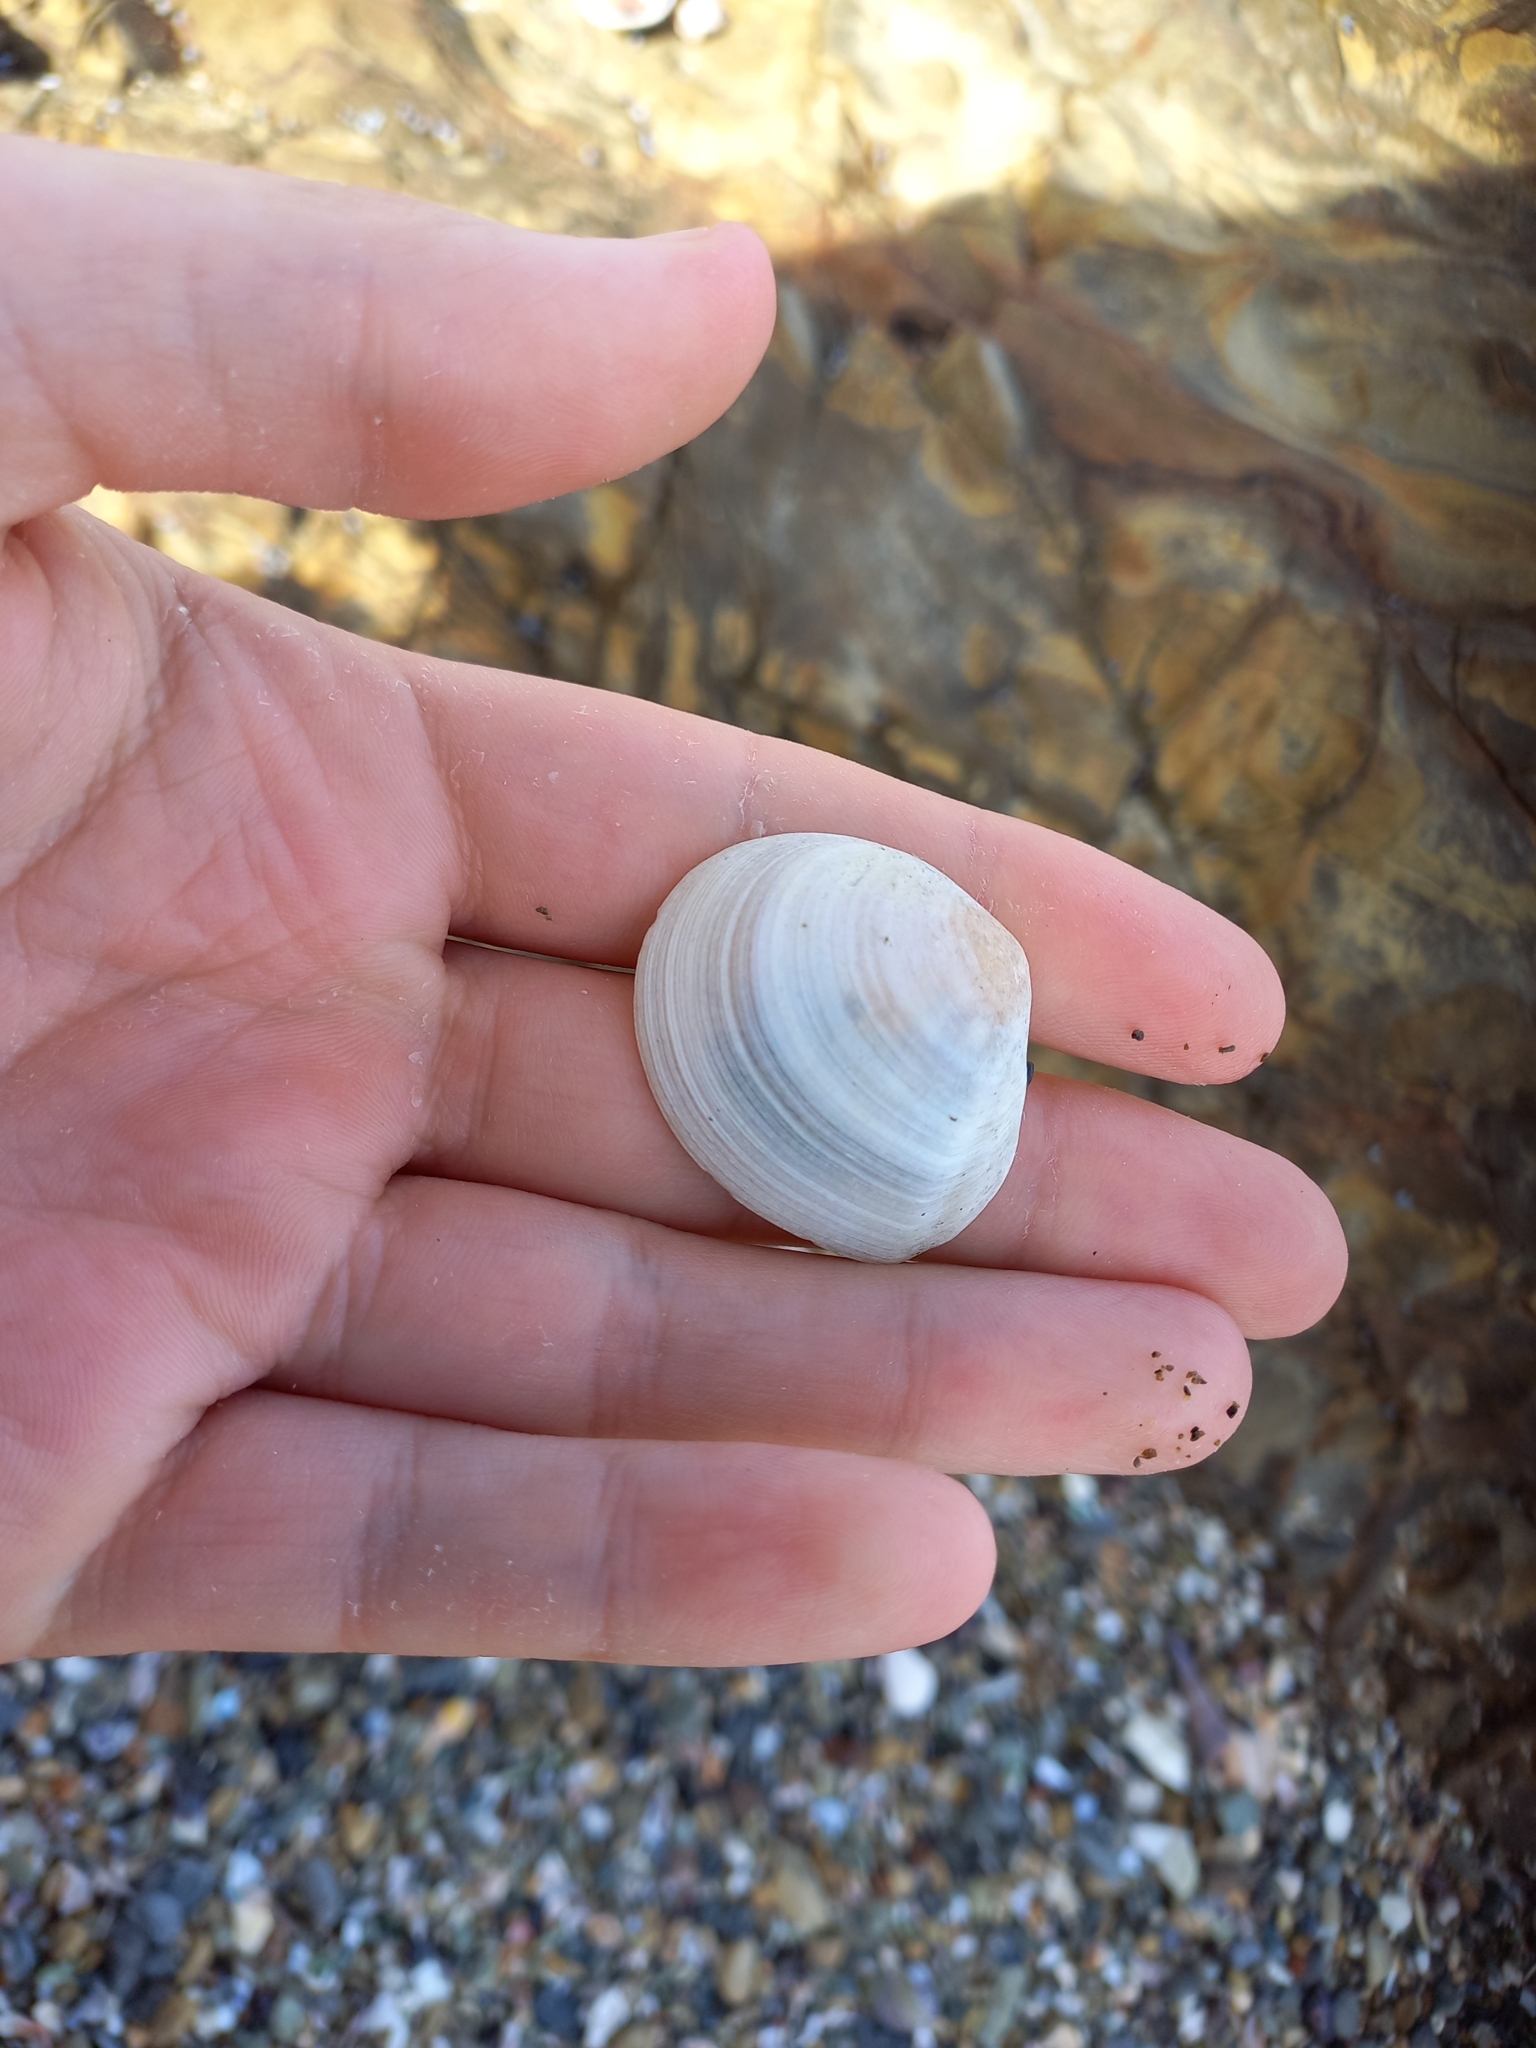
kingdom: Animalia
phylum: Mollusca
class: Bivalvia
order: Cardiida
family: Tellinidae
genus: Pseudarcopagia
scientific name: Pseudarcopagia disculus
